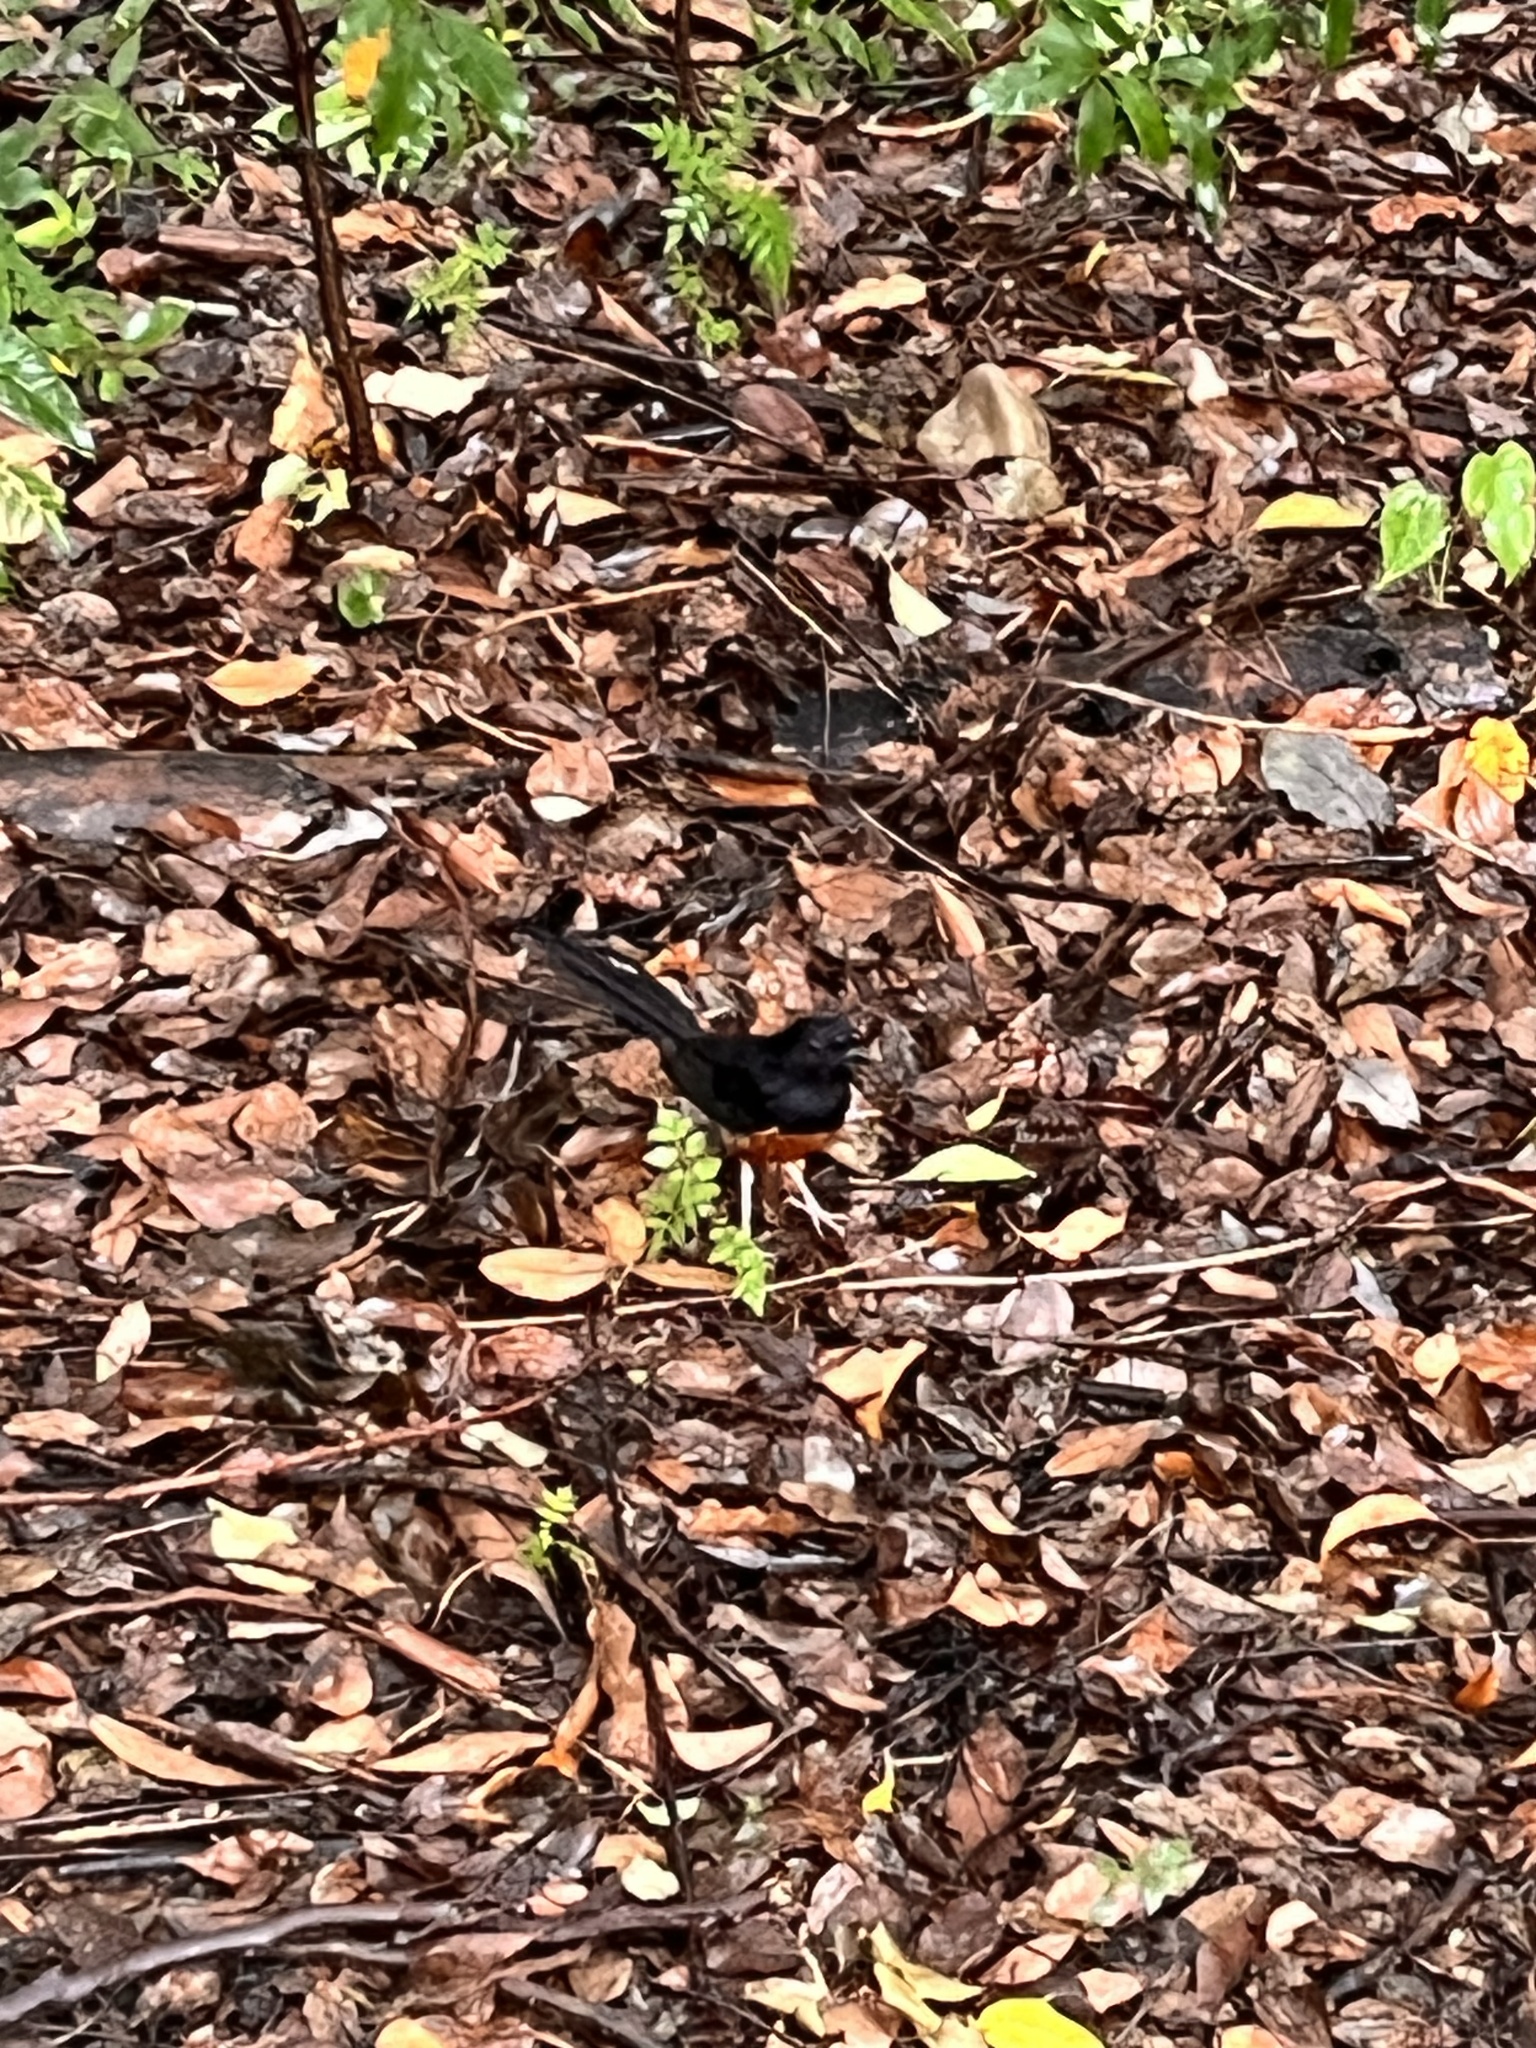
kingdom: Animalia
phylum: Chordata
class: Aves
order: Passeriformes
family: Muscicapidae
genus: Copsychus
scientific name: Copsychus malabaricus
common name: White-rumped shama
